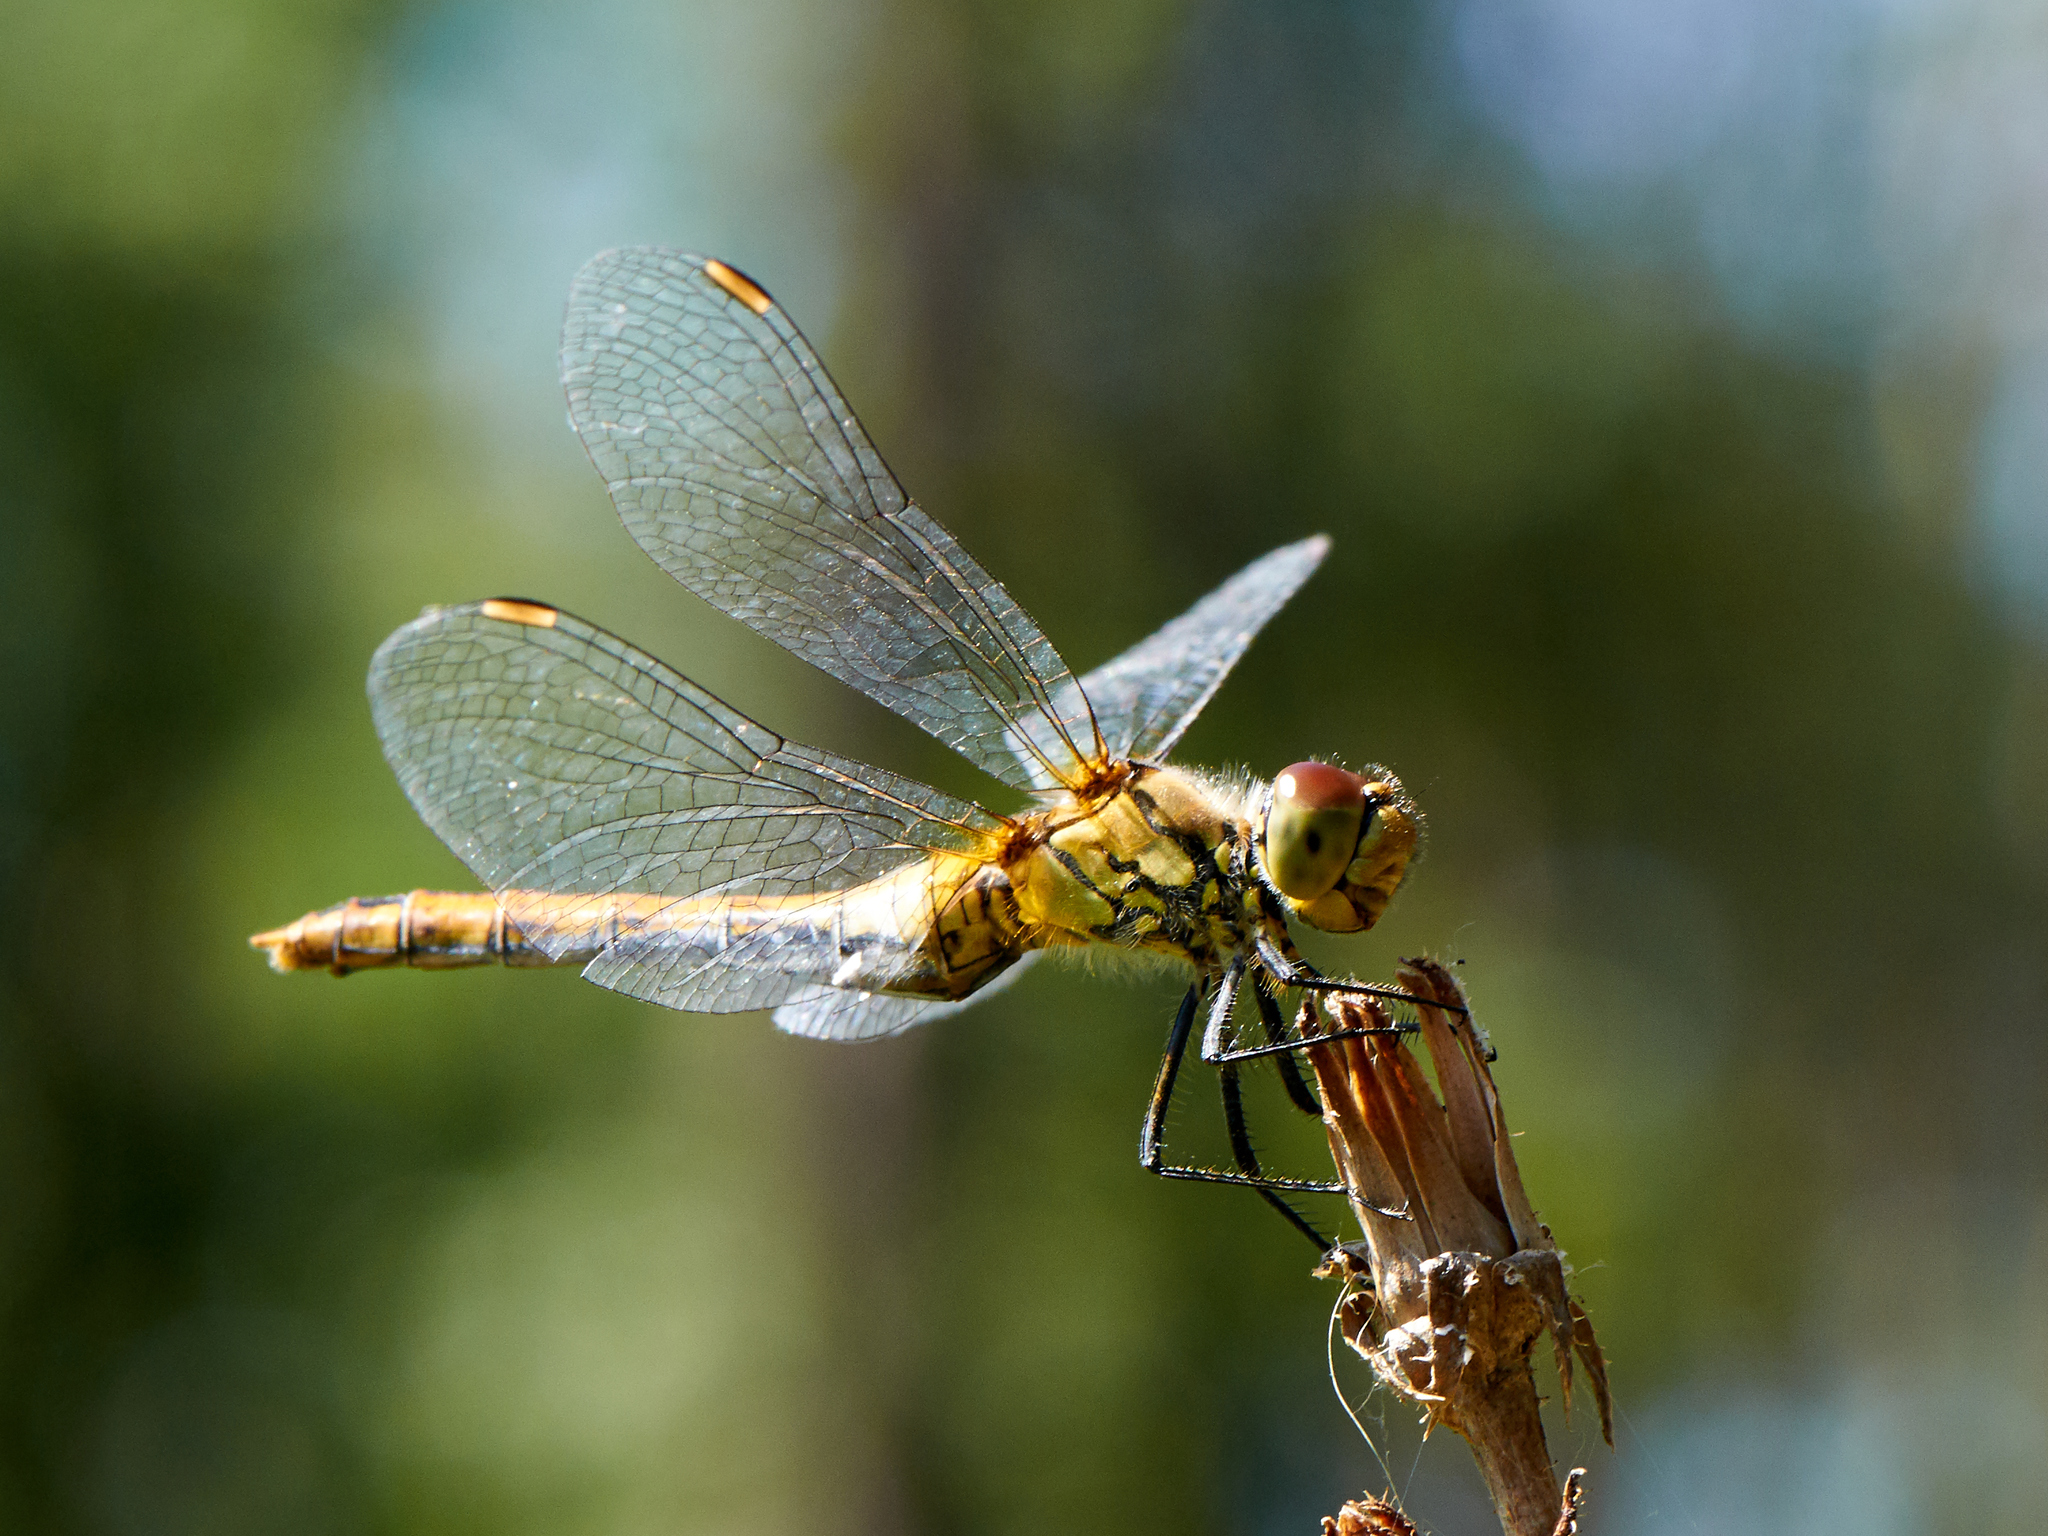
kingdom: Animalia
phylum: Arthropoda
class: Insecta
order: Odonata
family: Libellulidae
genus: Sympetrum
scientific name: Sympetrum sanguineum
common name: Ruddy darter
